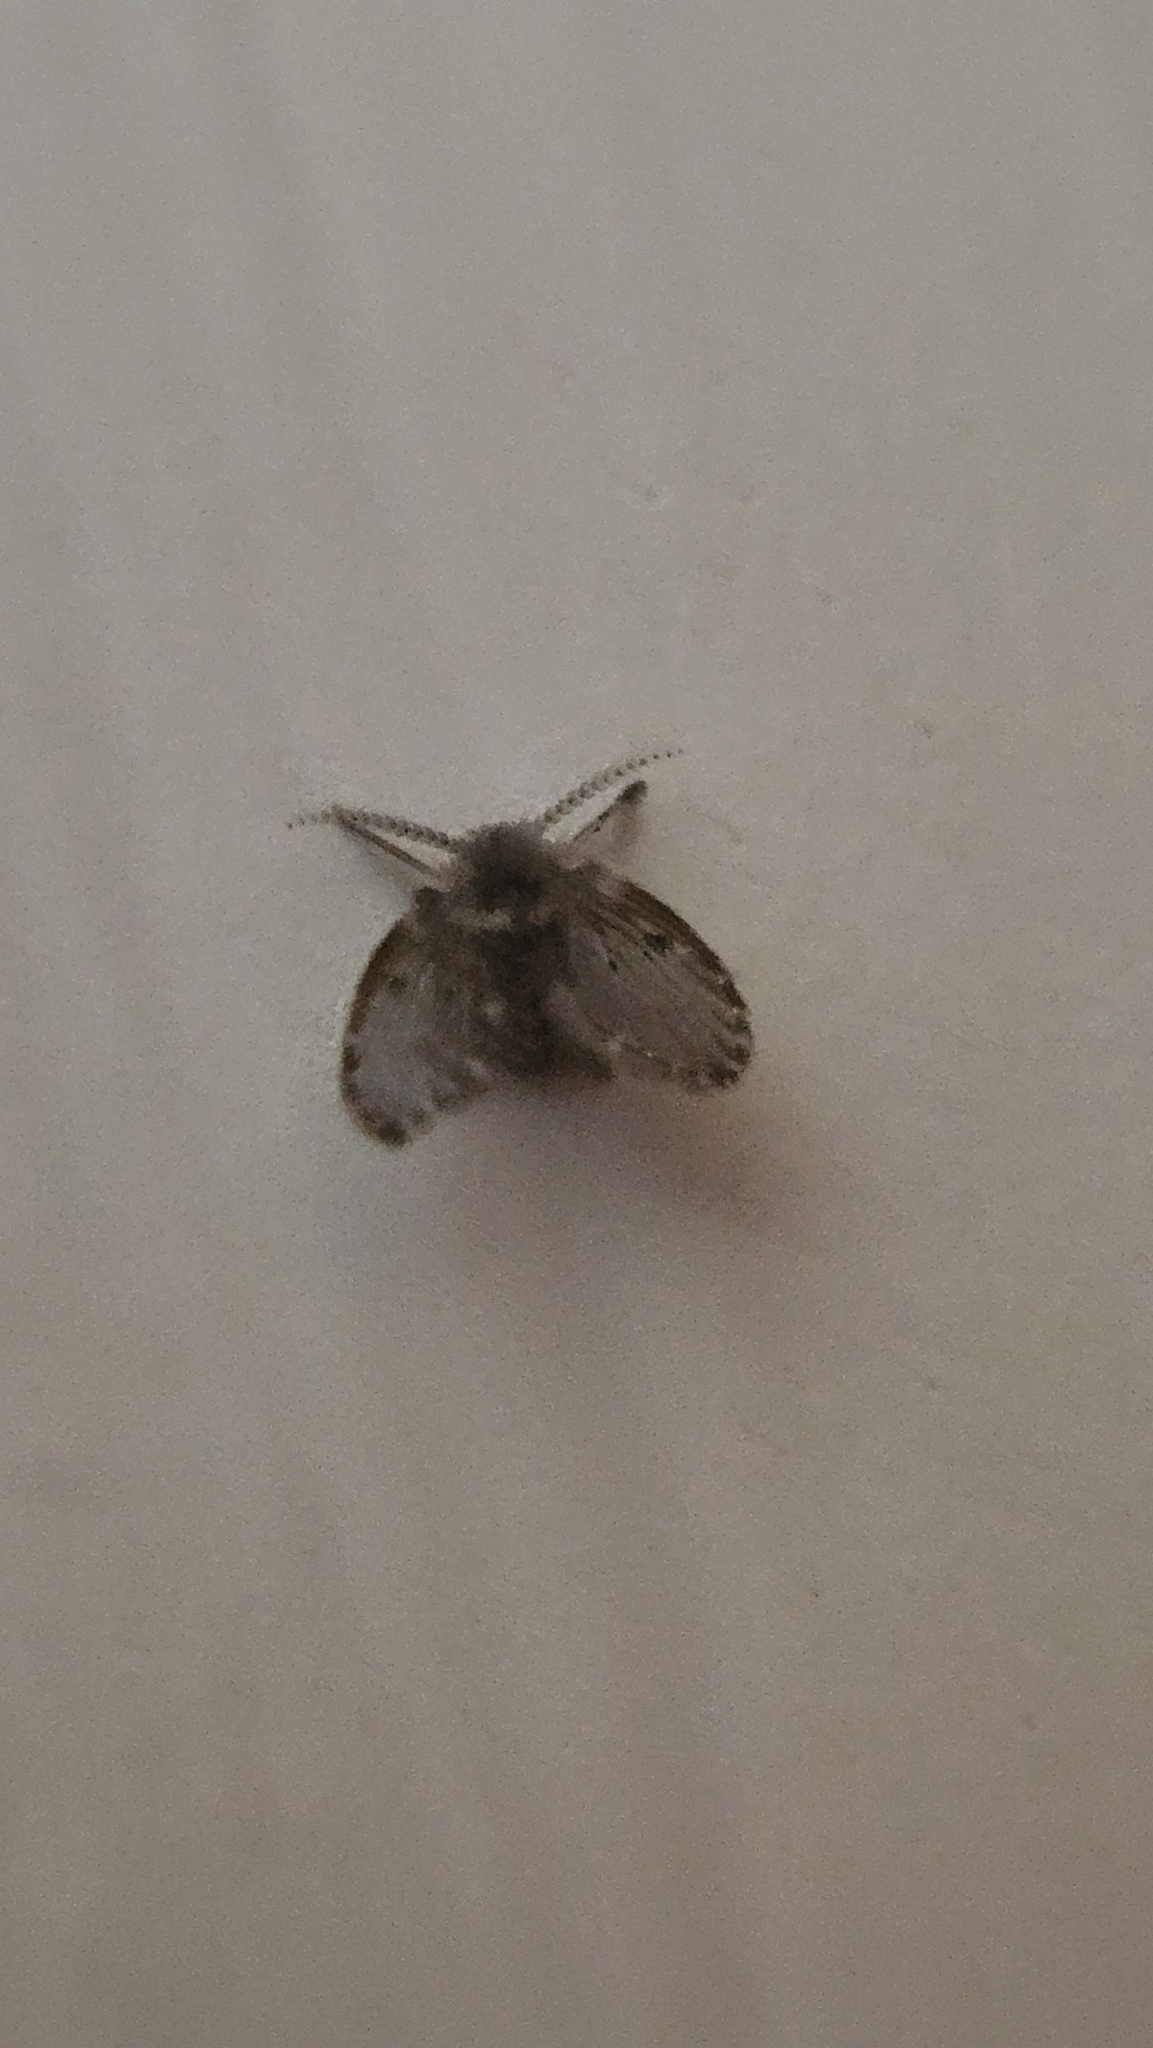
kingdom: Animalia
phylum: Arthropoda
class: Insecta
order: Diptera
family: Psychodidae
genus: Clogmia
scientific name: Clogmia albipunctatus
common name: White-spotted moth fly
